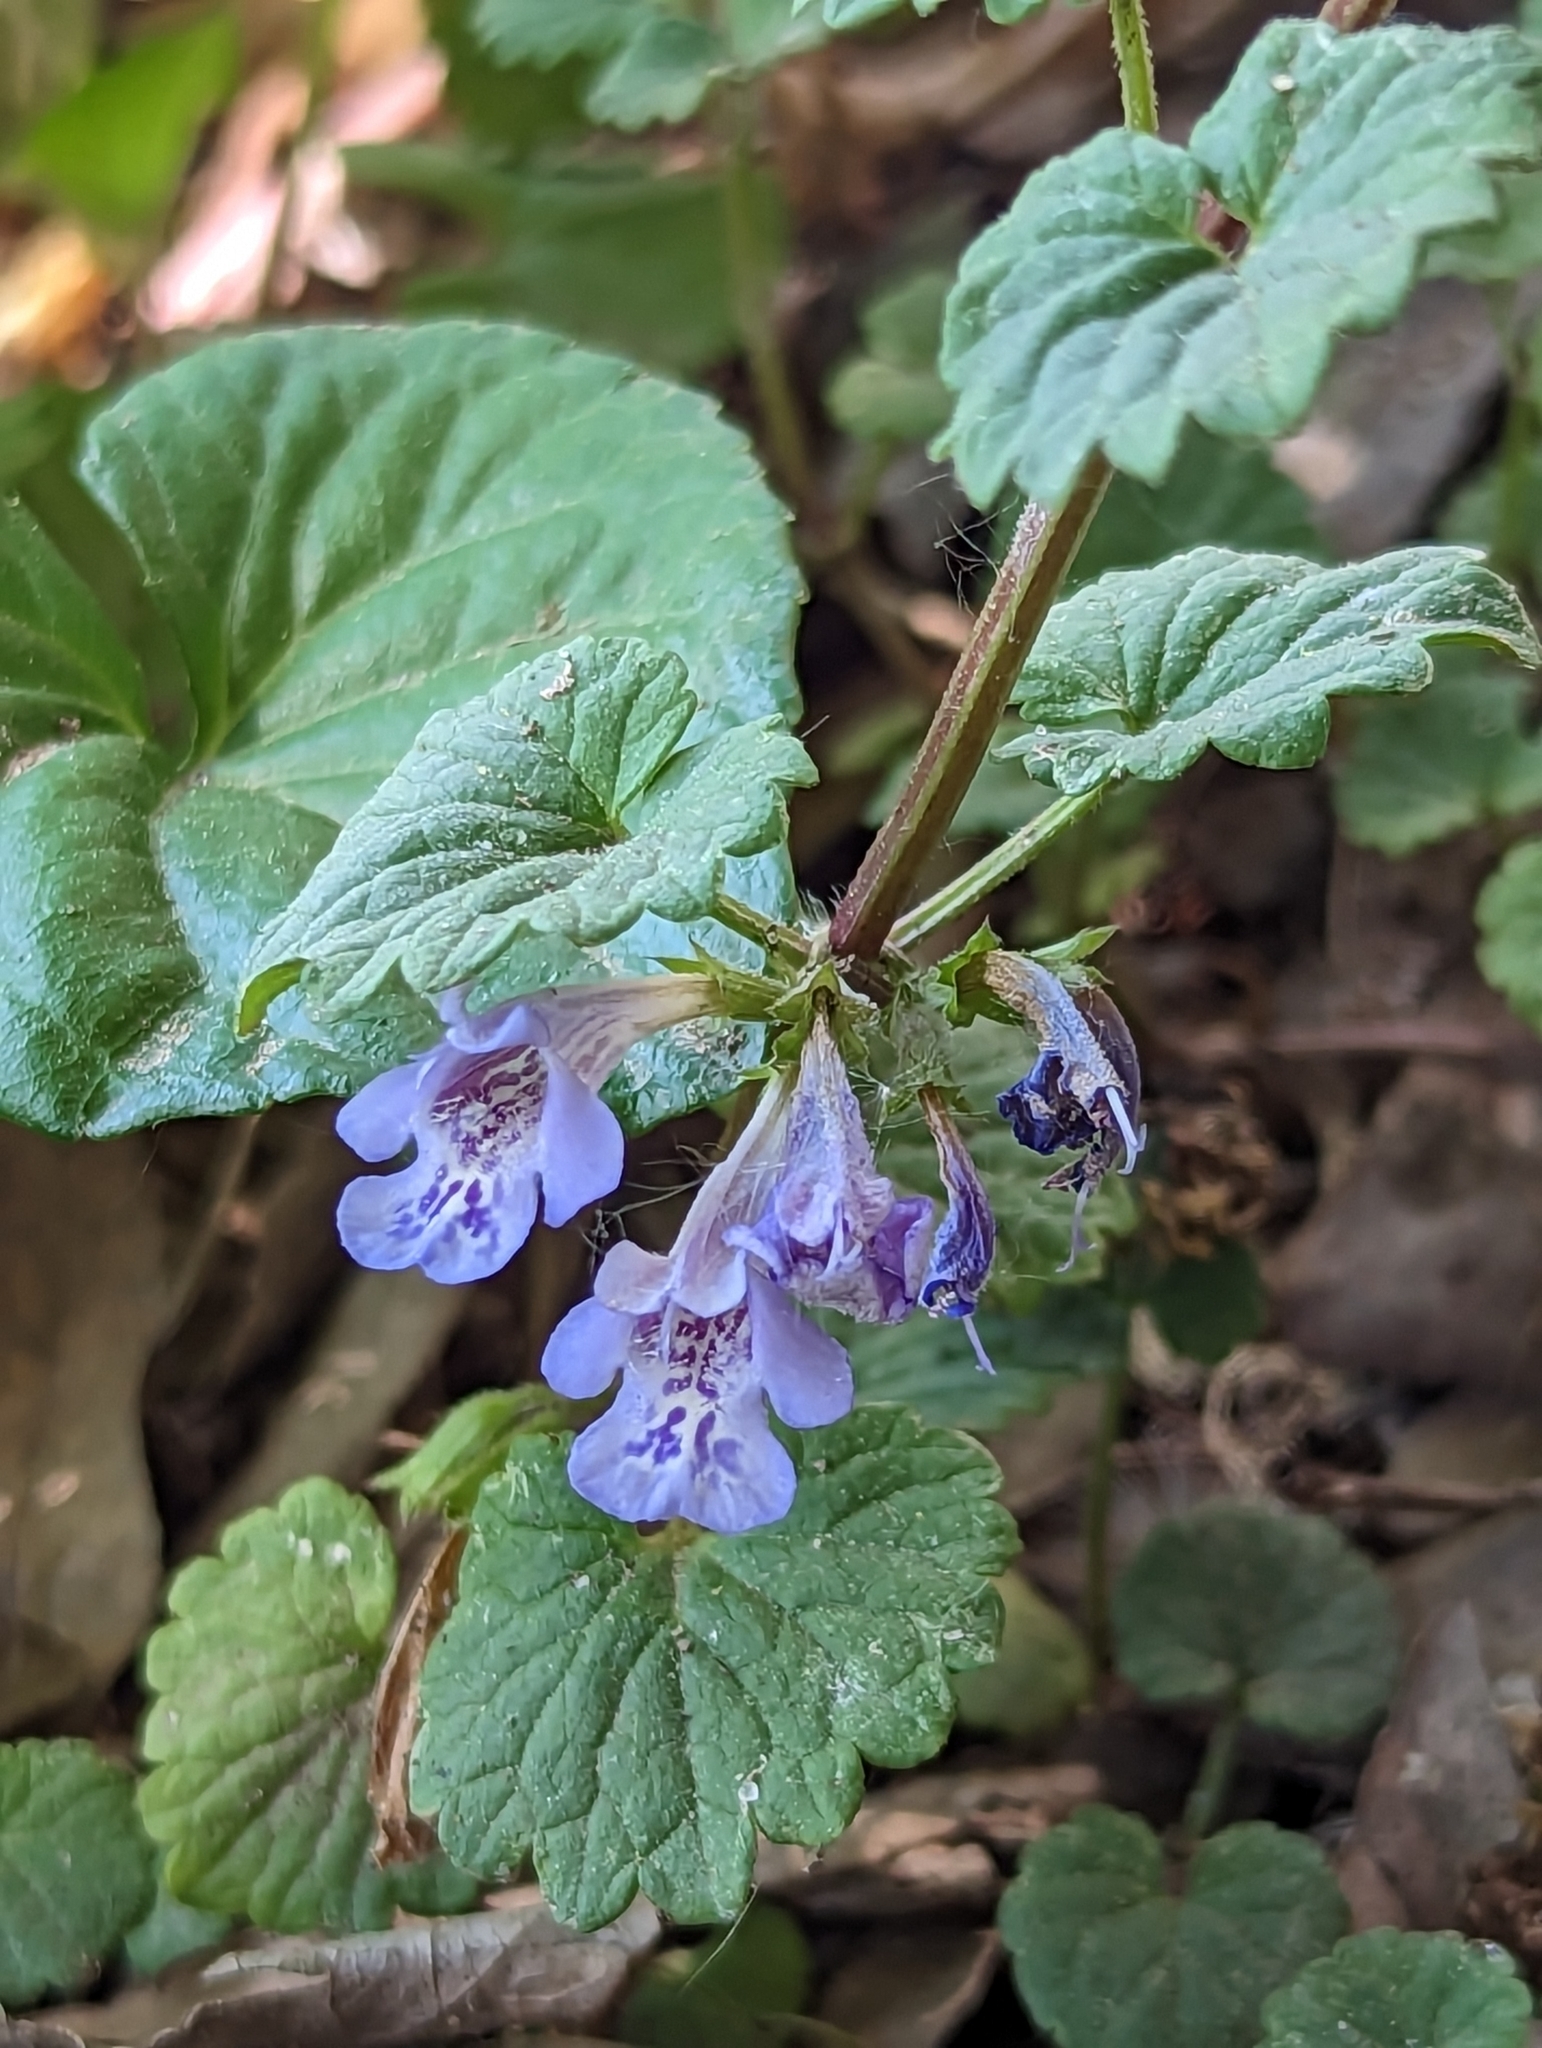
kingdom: Plantae
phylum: Tracheophyta
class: Magnoliopsida
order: Lamiales
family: Lamiaceae
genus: Glechoma
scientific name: Glechoma hederacea
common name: Ground ivy
